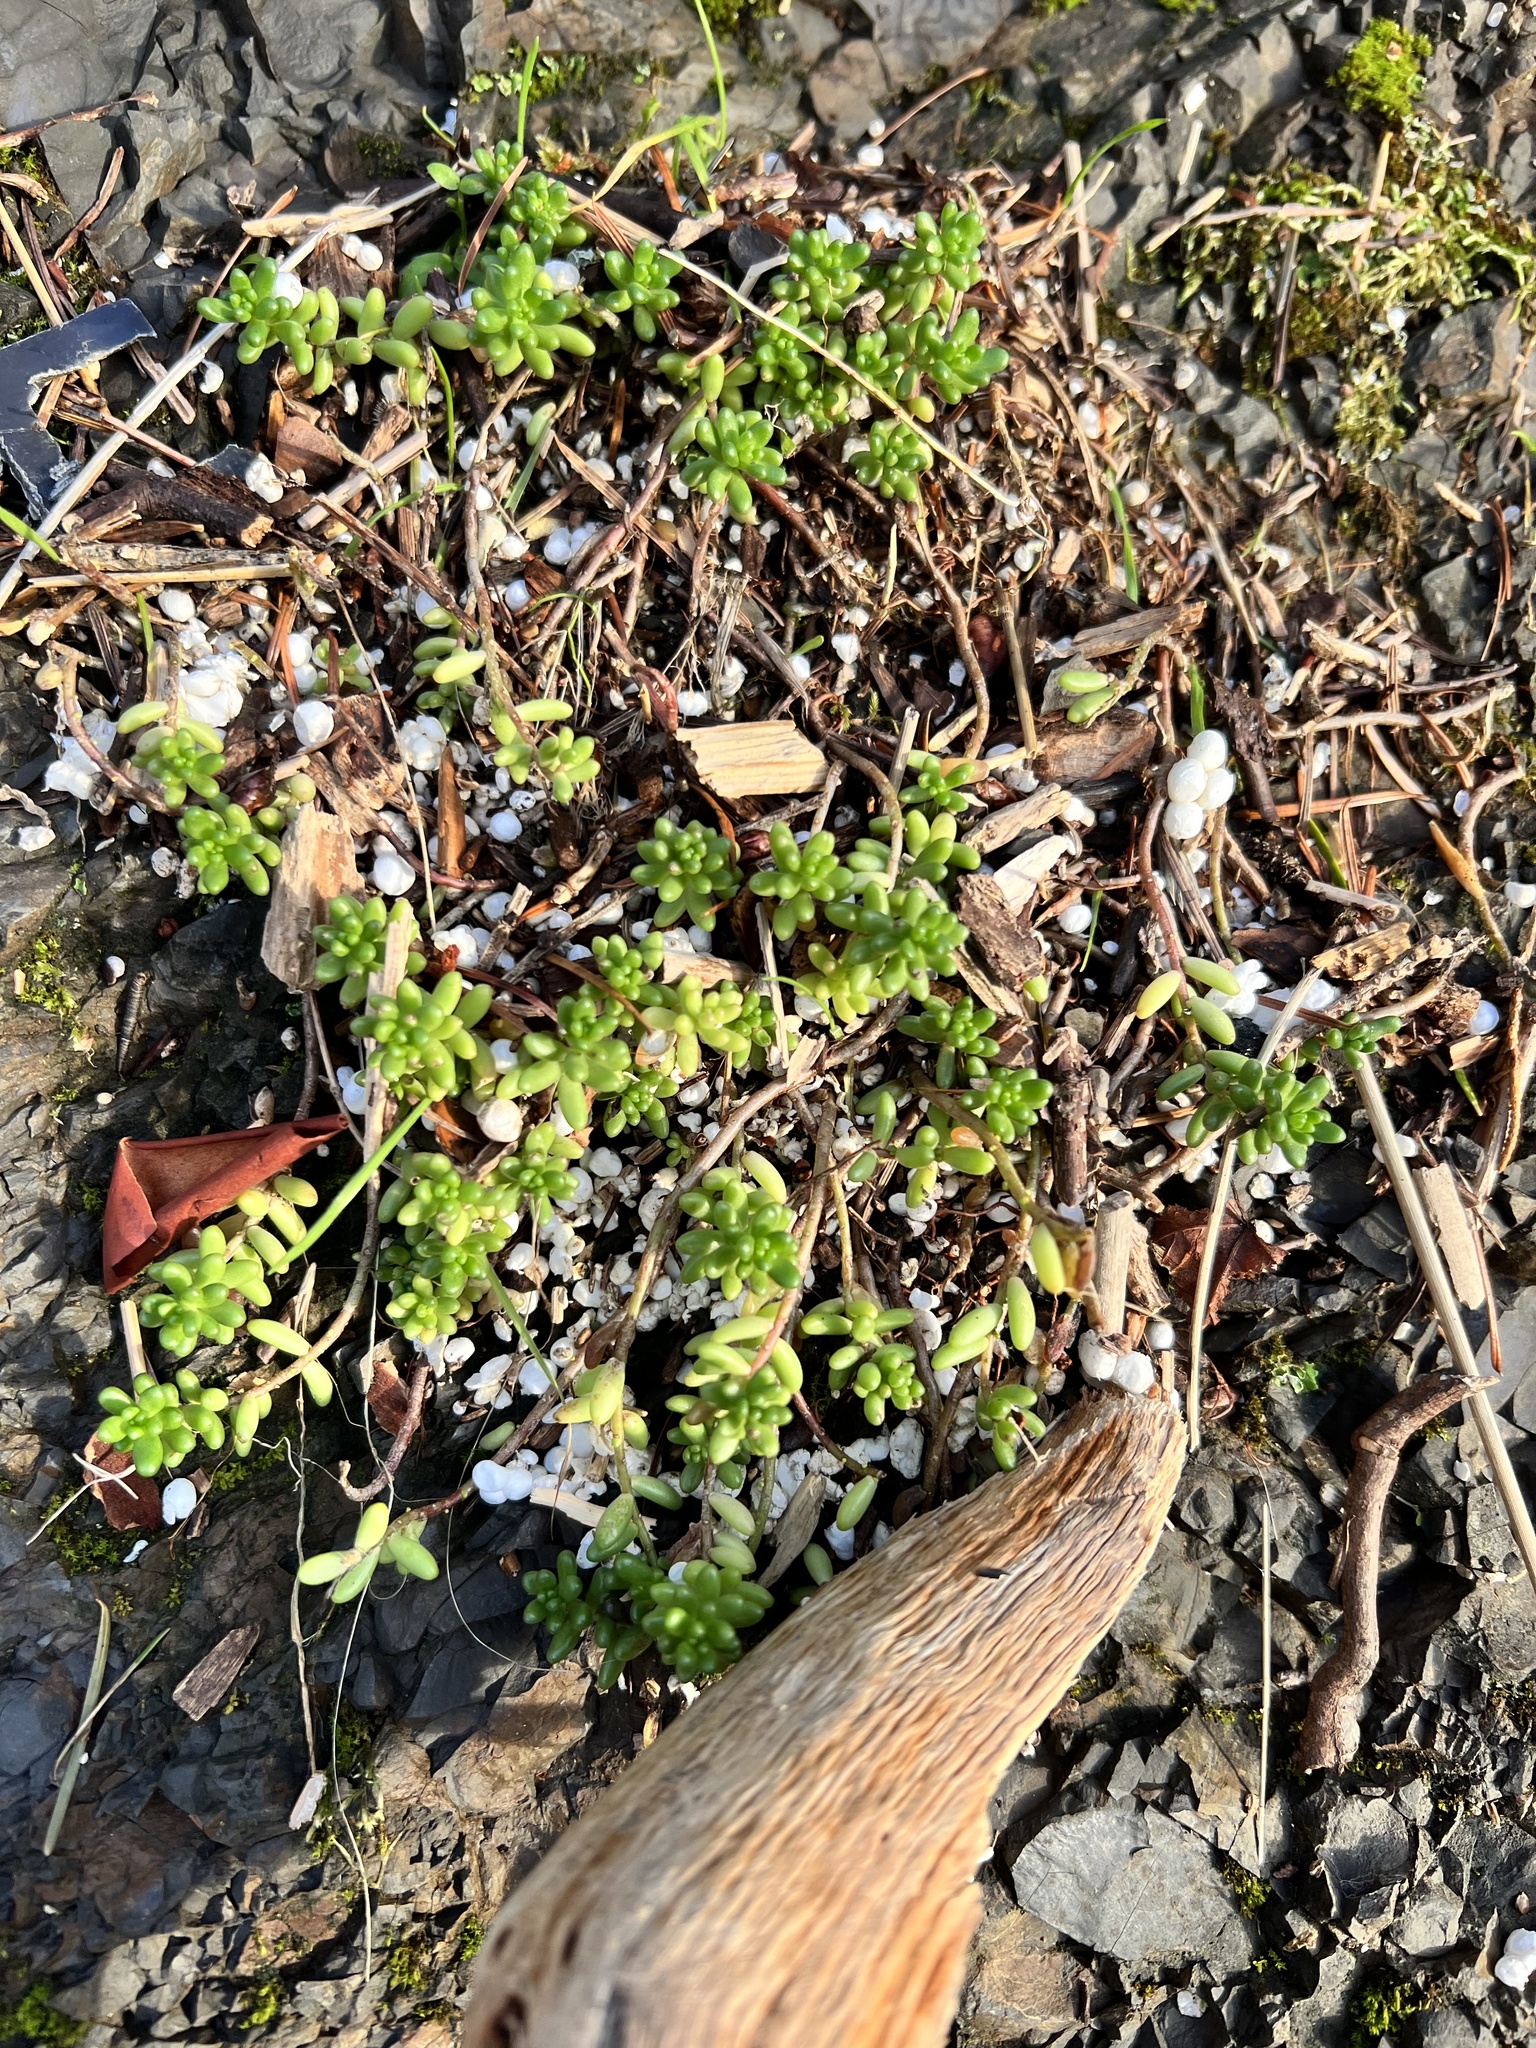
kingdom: Plantae
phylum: Tracheophyta
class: Magnoliopsida
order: Saxifragales
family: Crassulaceae
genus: Sedum
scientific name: Sedum album
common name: White stonecrop
